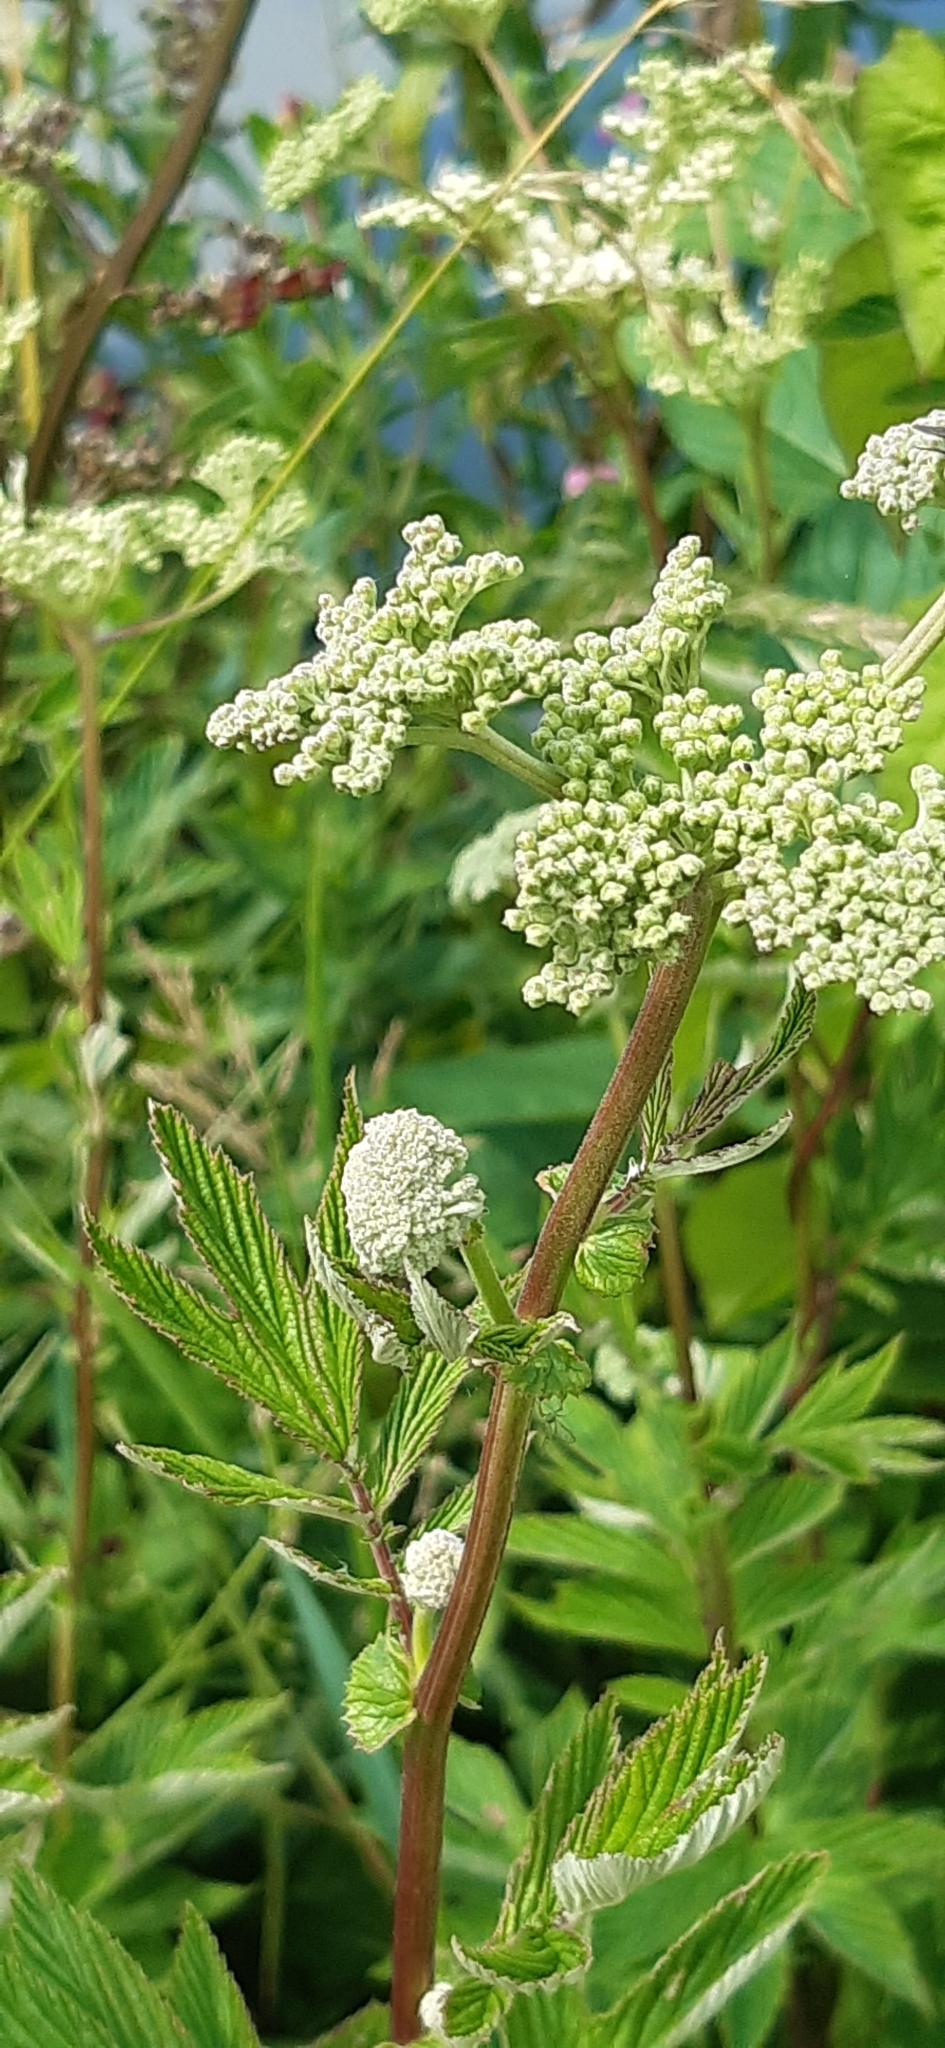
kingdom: Plantae
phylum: Tracheophyta
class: Magnoliopsida
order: Rosales
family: Rosaceae
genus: Filipendula
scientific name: Filipendula ulmaria
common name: Meadowsweet
